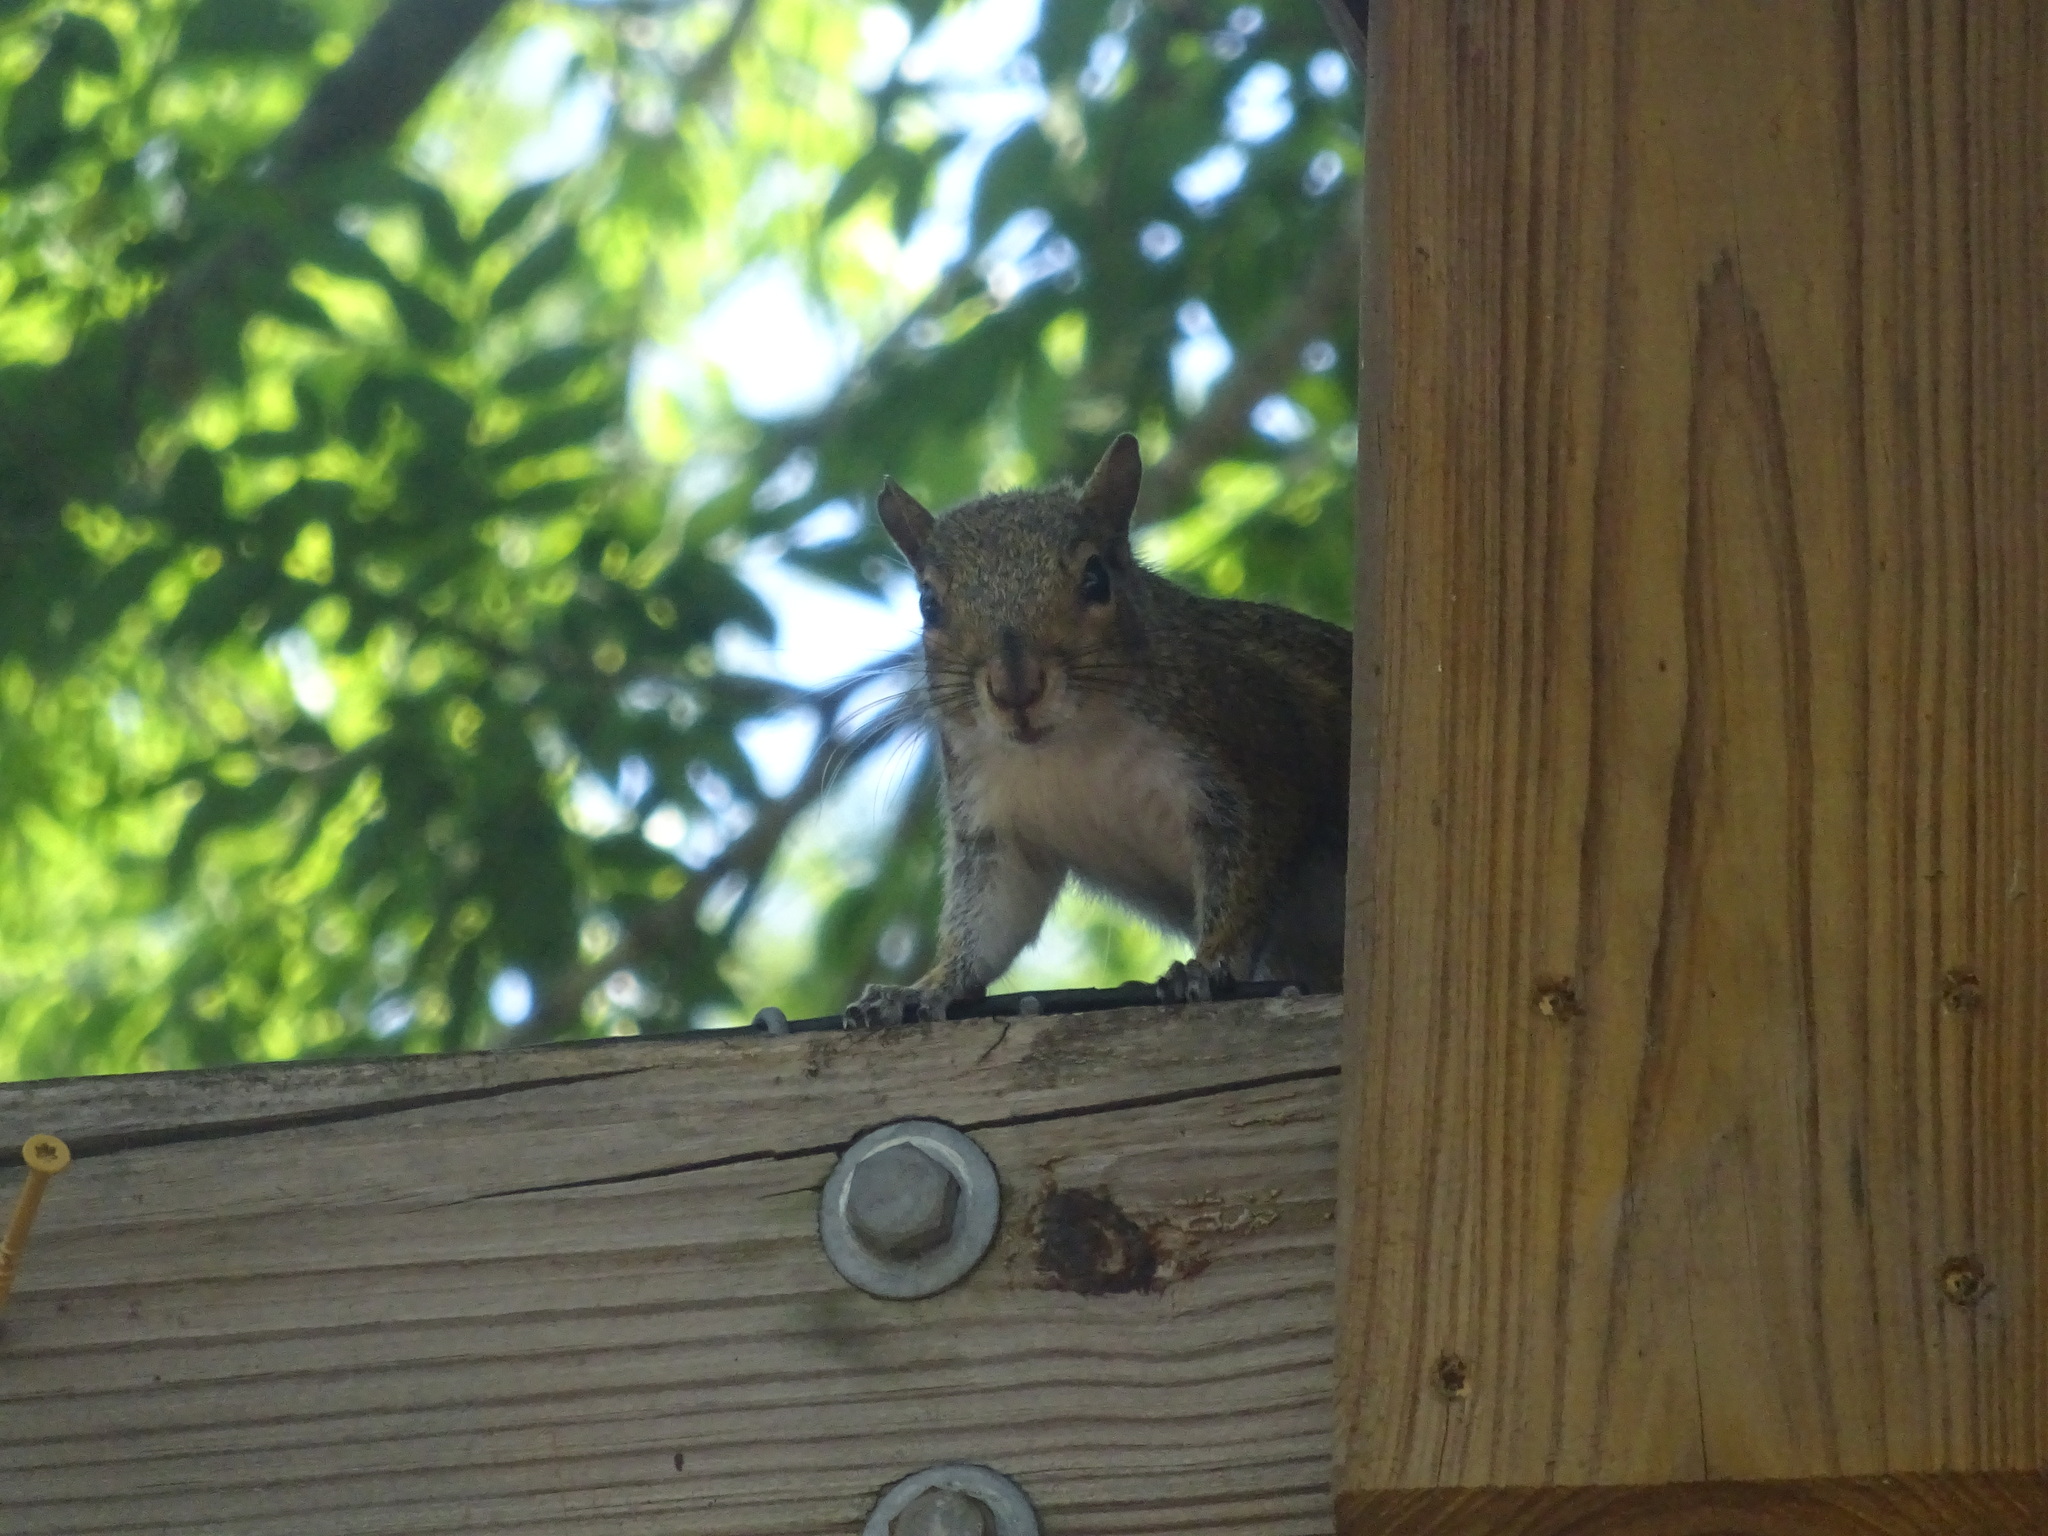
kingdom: Animalia
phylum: Chordata
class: Mammalia
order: Rodentia
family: Sciuridae
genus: Sciurus
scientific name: Sciurus carolinensis
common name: Eastern gray squirrel
